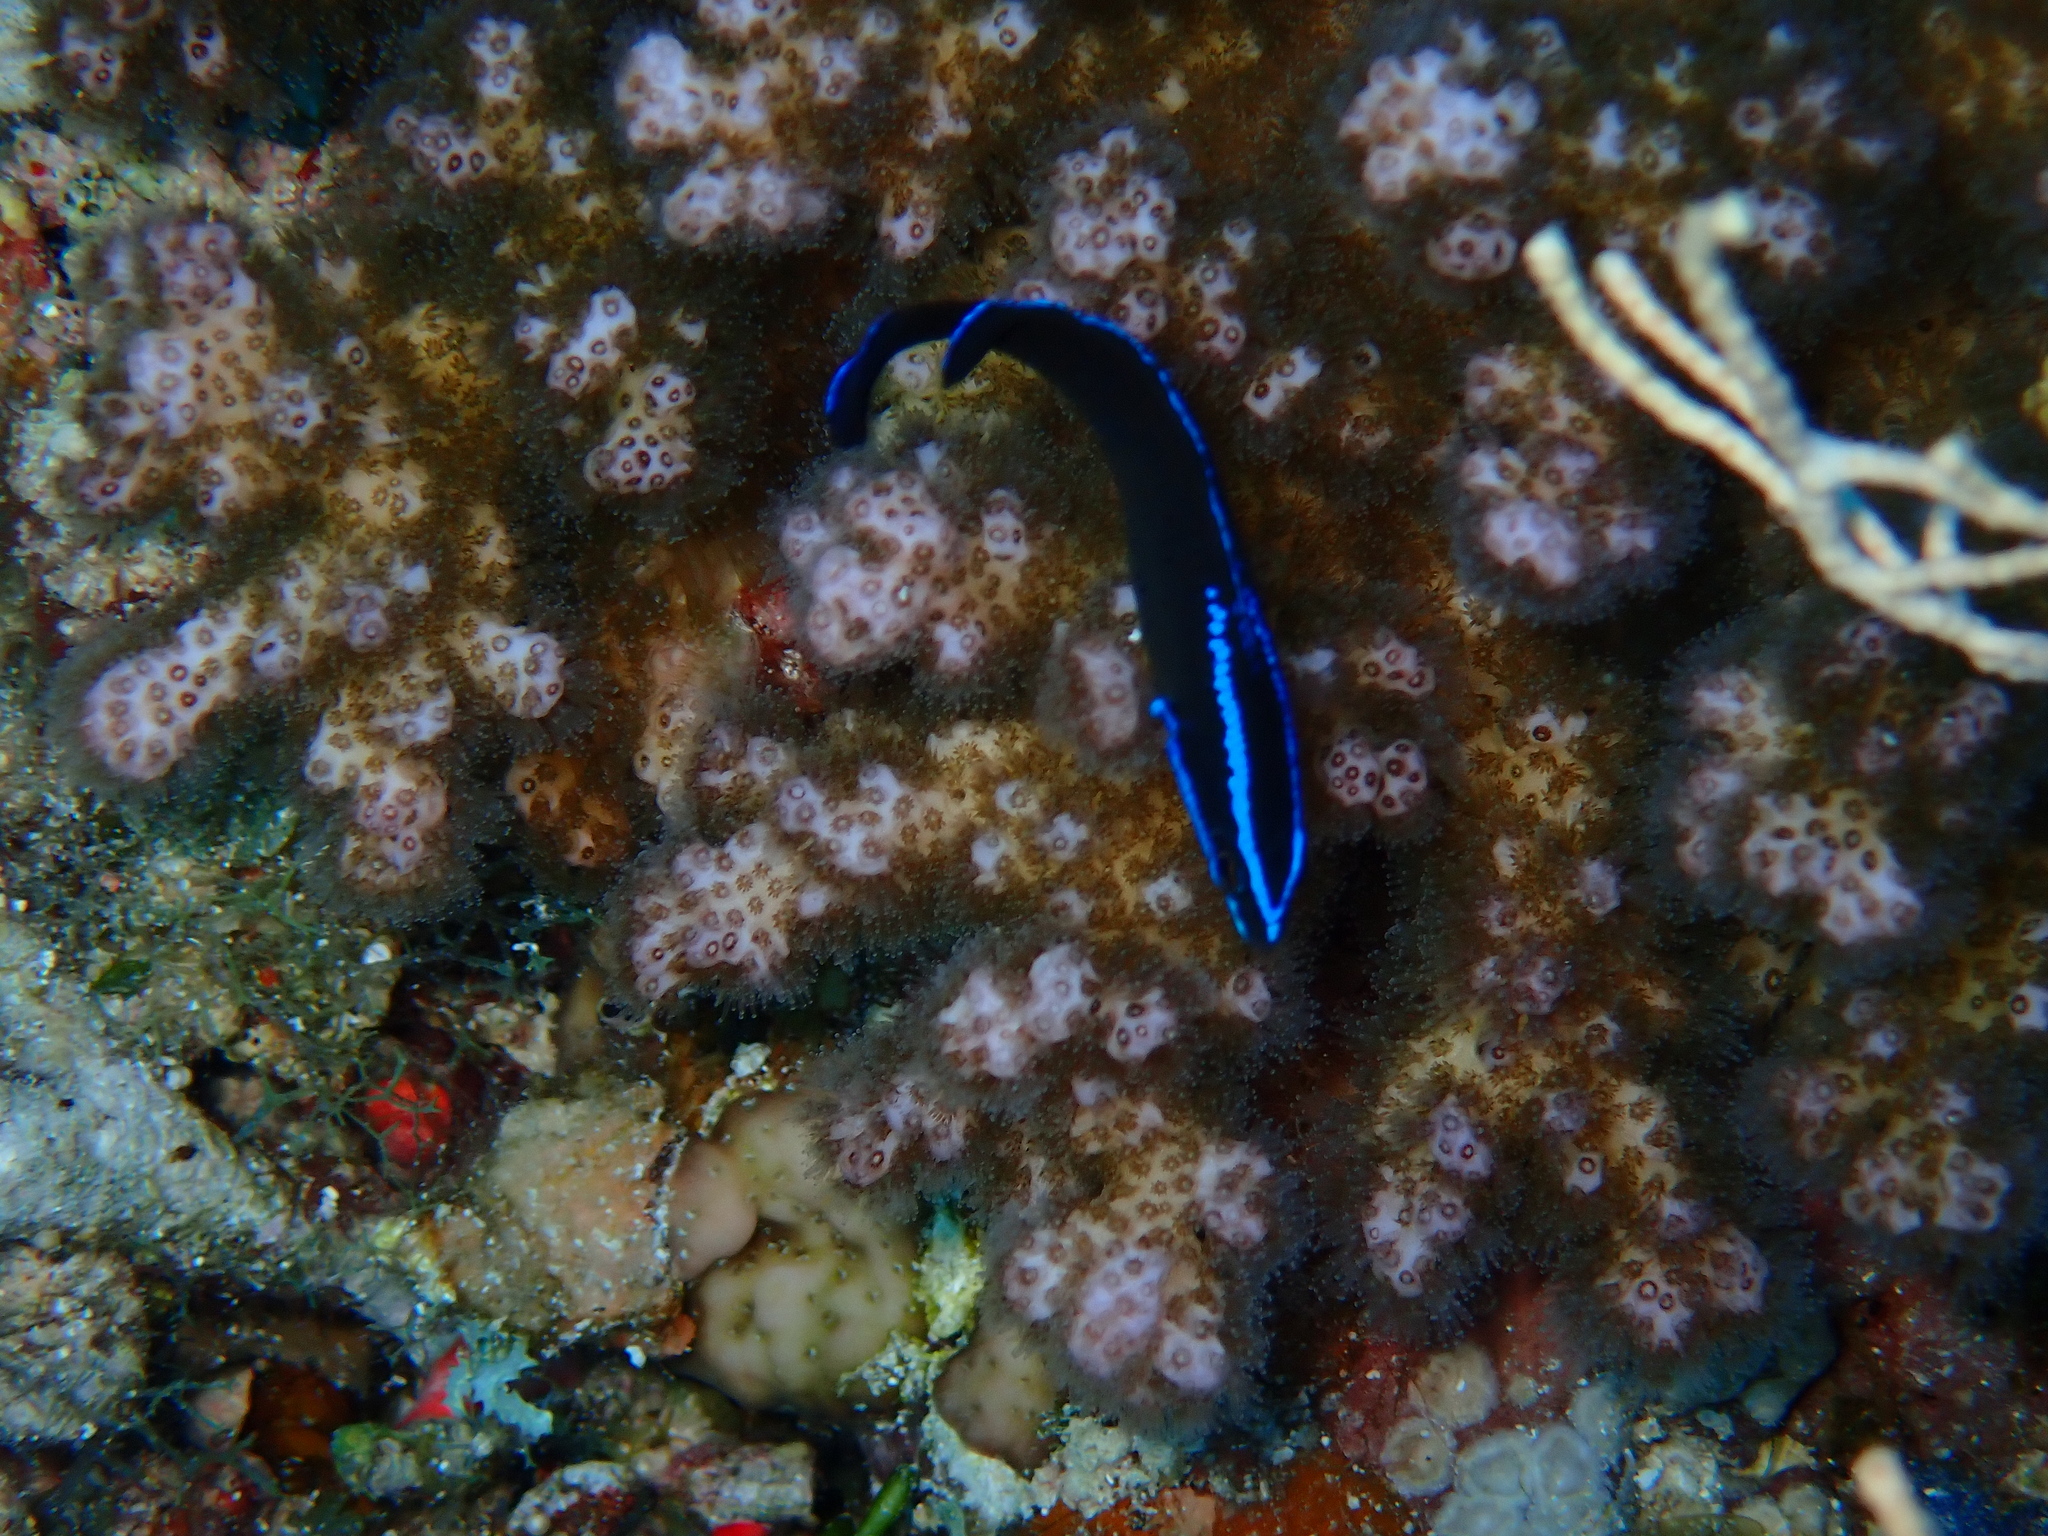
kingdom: Animalia
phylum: Chordata
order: Perciformes
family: Pseudochromidae
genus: Pseudochromis
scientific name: Pseudochromis springeri
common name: Blue-striped dottyback
